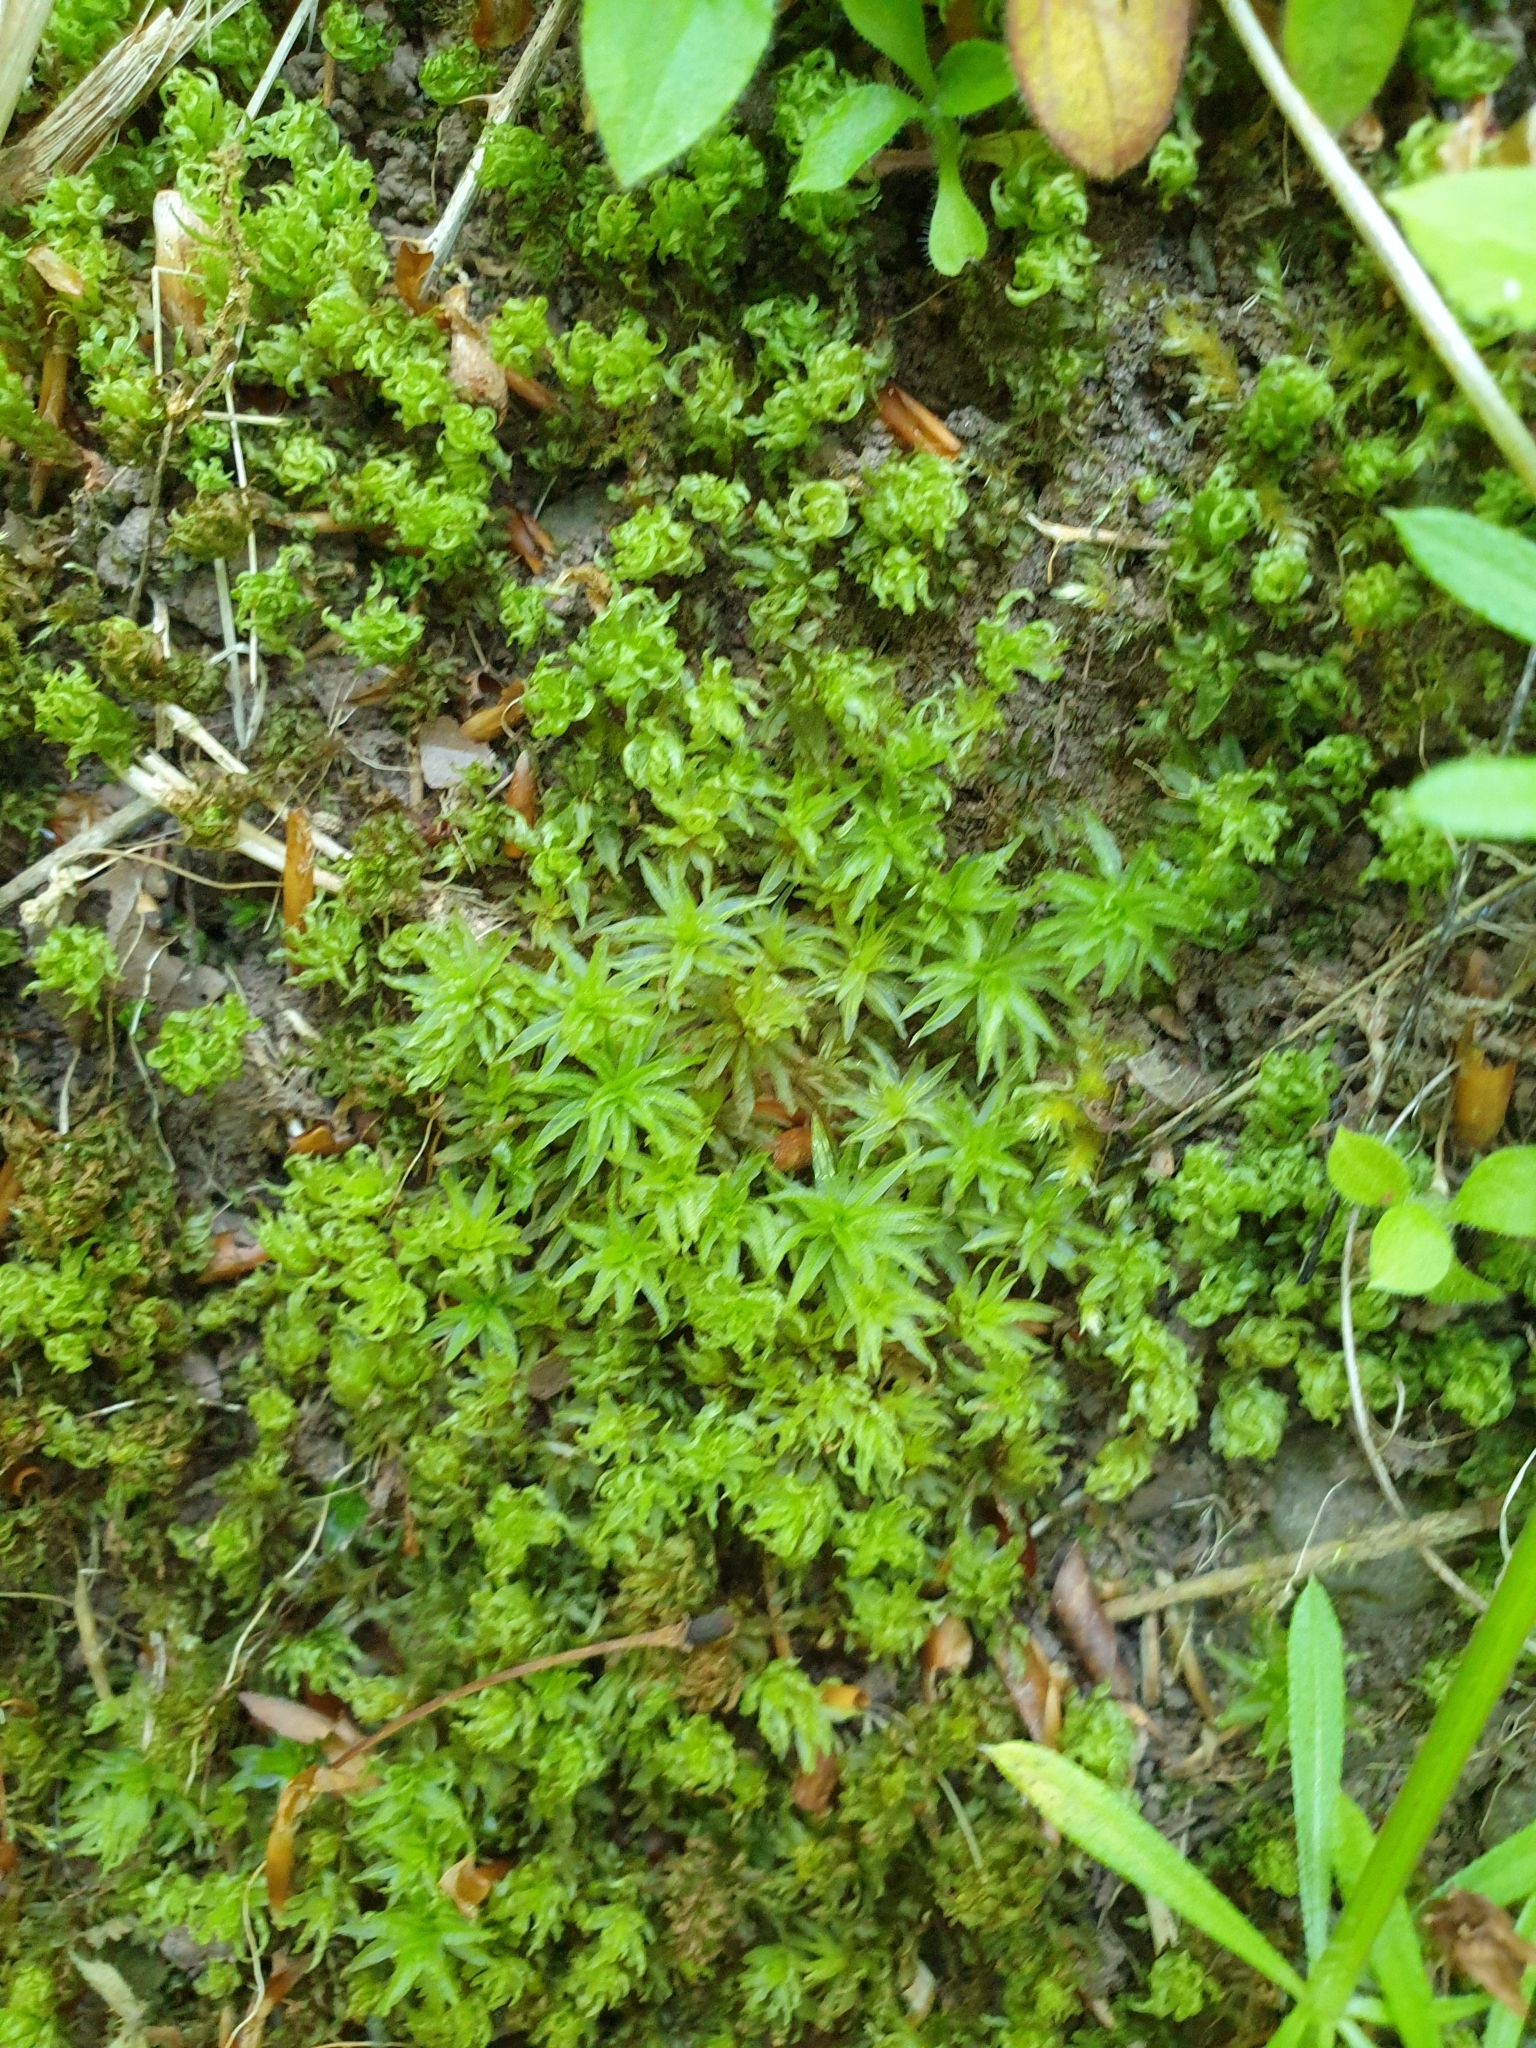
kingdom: Plantae
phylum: Bryophyta
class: Polytrichopsida
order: Polytrichales
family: Polytrichaceae
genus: Atrichum
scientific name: Atrichum undulatum
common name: Common smoothcap
